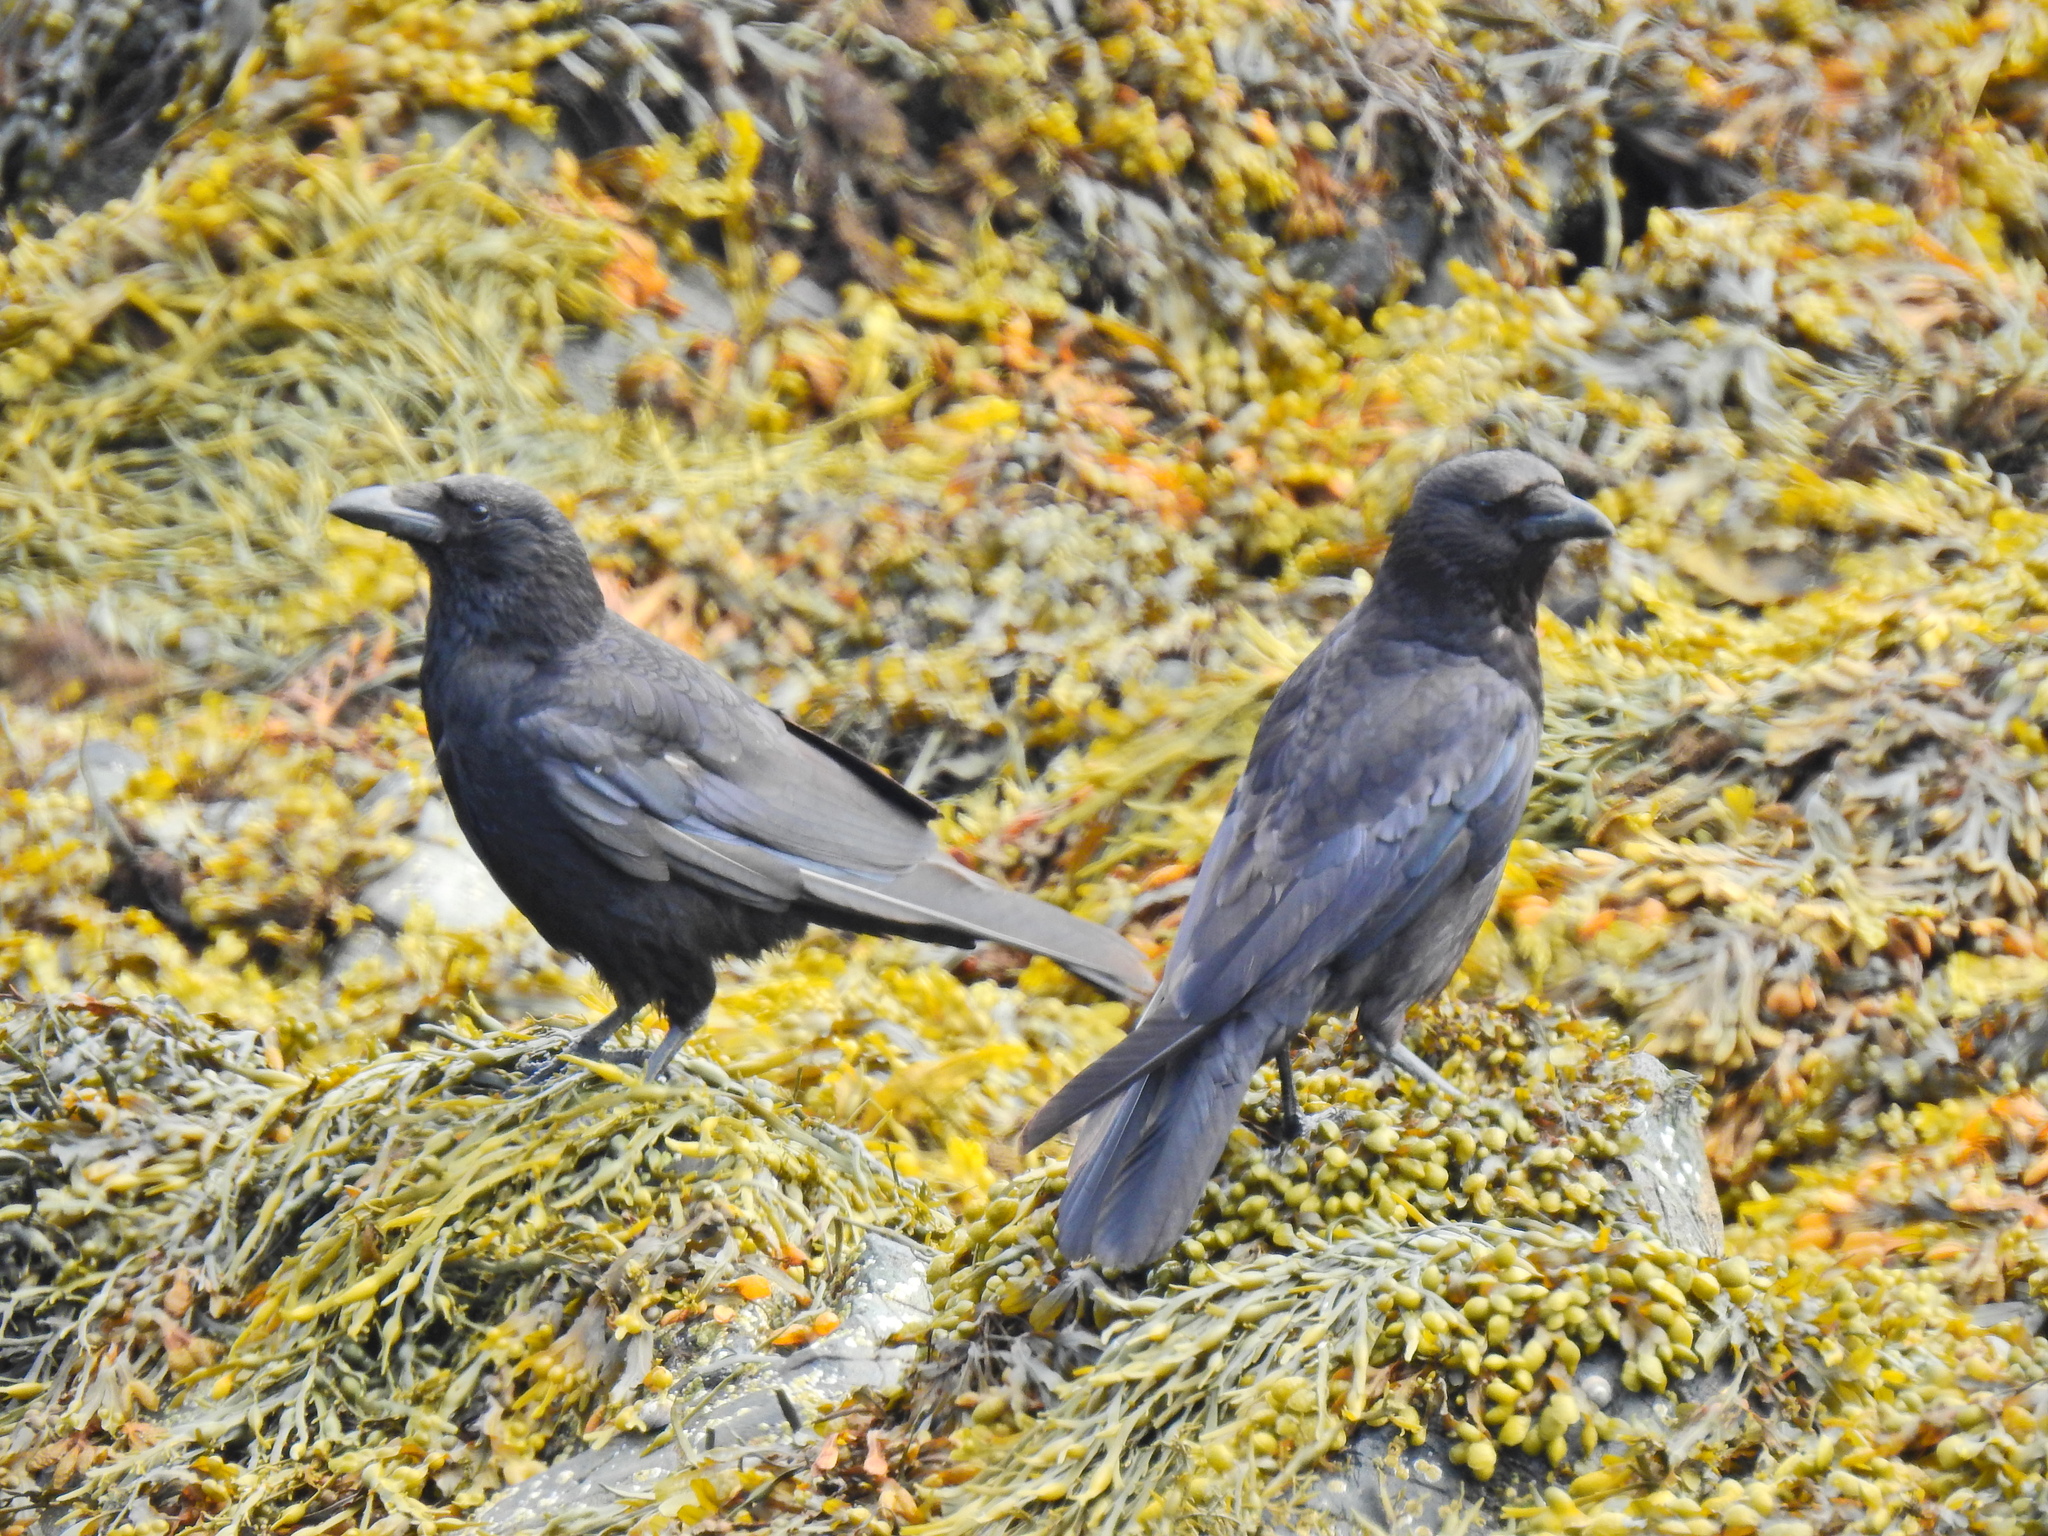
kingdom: Animalia
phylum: Chordata
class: Aves
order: Passeriformes
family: Corvidae
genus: Corvus
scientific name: Corvus corone
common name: Carrion crow
